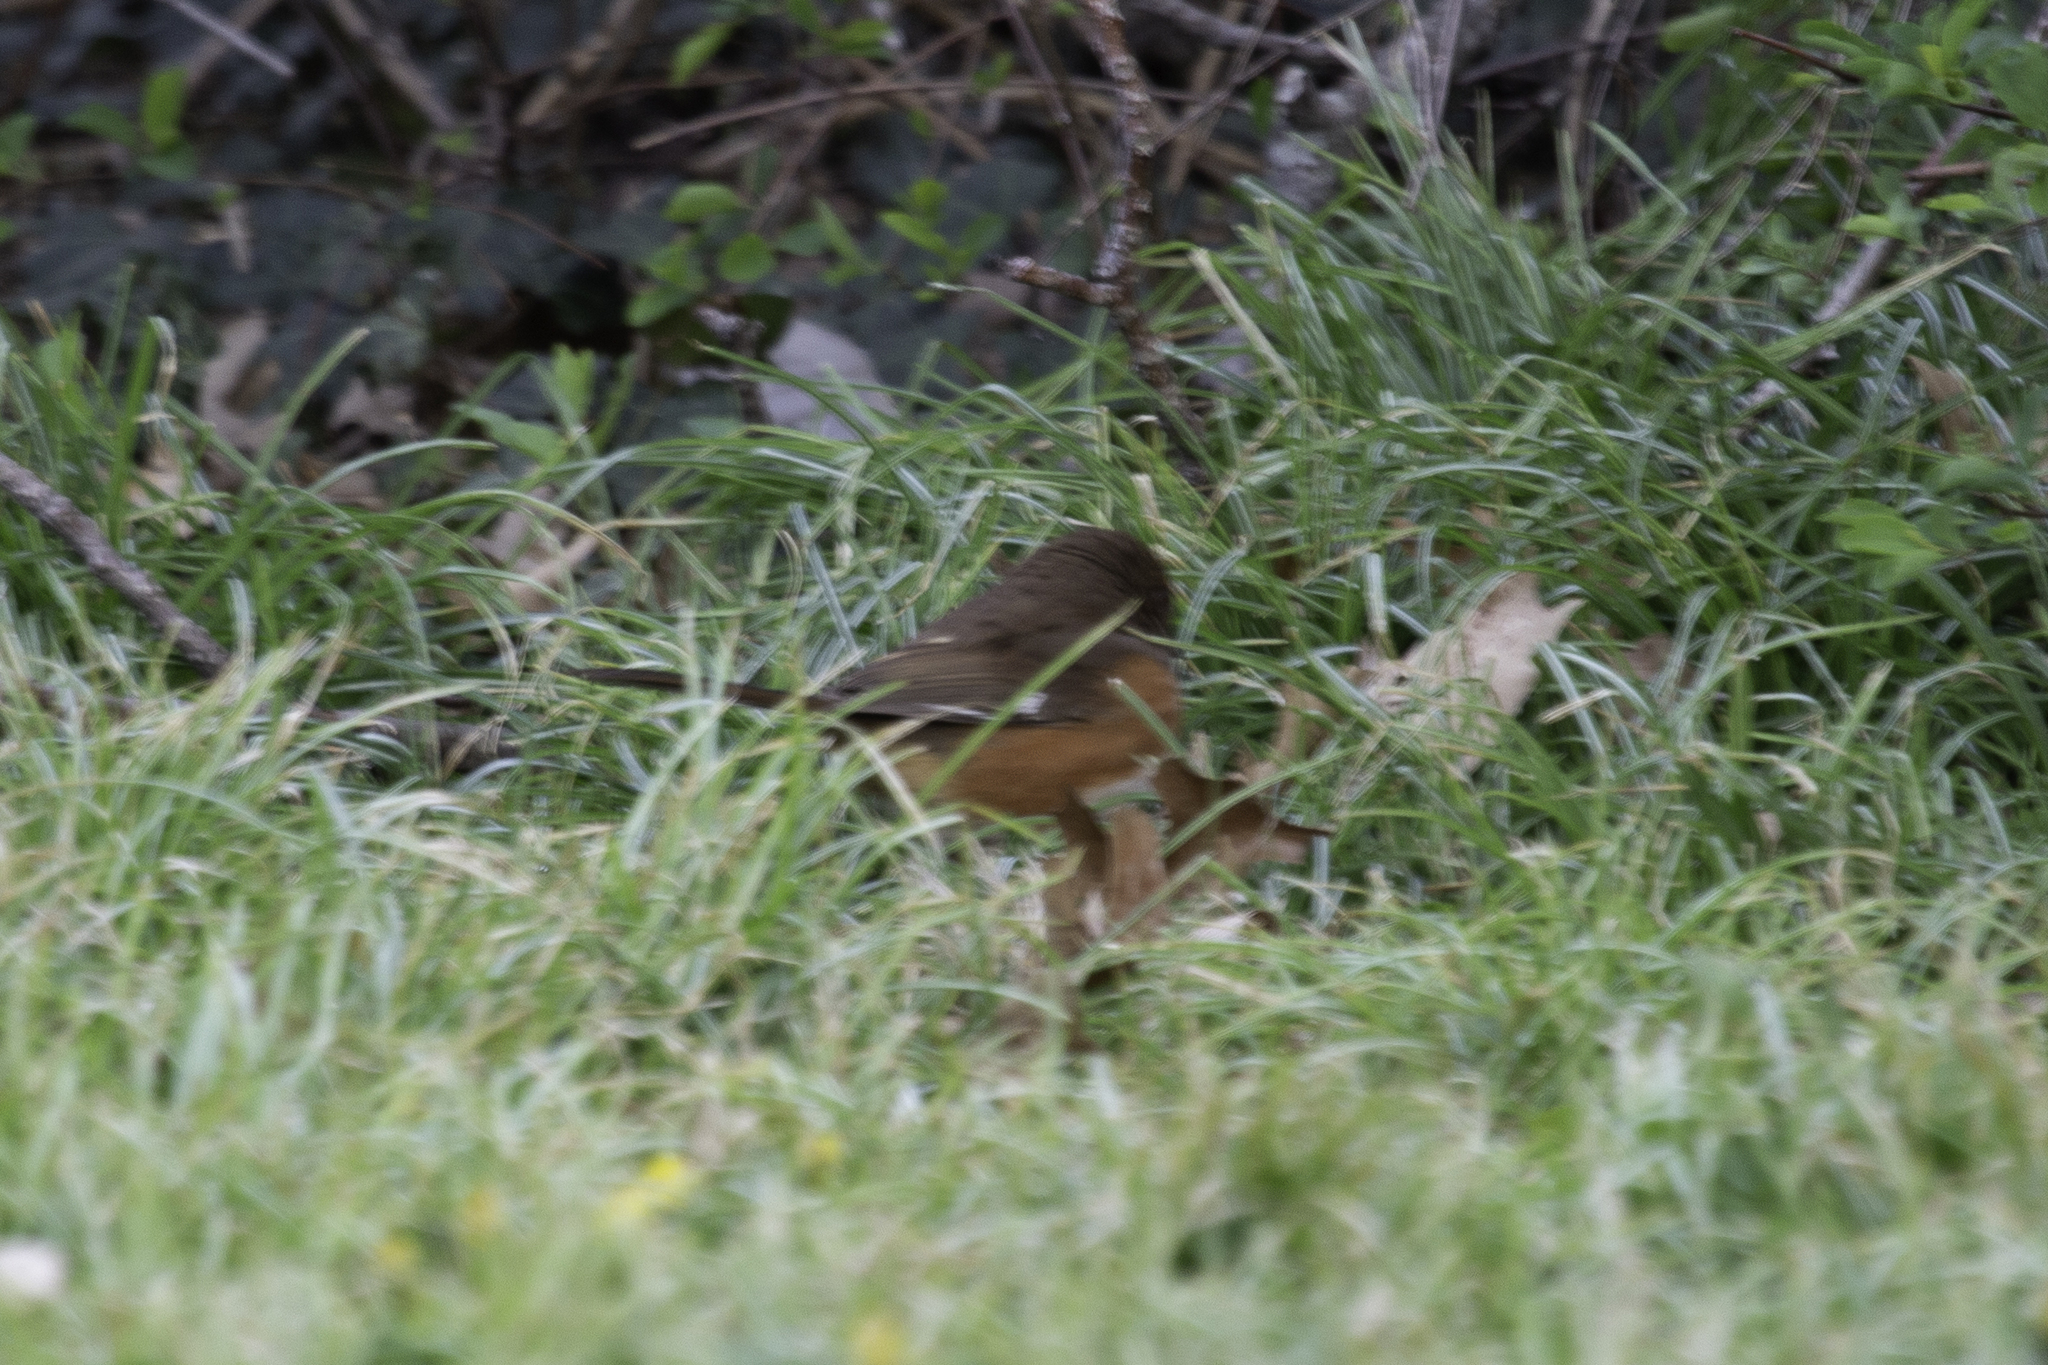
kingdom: Animalia
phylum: Chordata
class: Aves
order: Passeriformes
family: Passerellidae
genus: Pipilo
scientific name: Pipilo erythrophthalmus
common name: Eastern towhee
